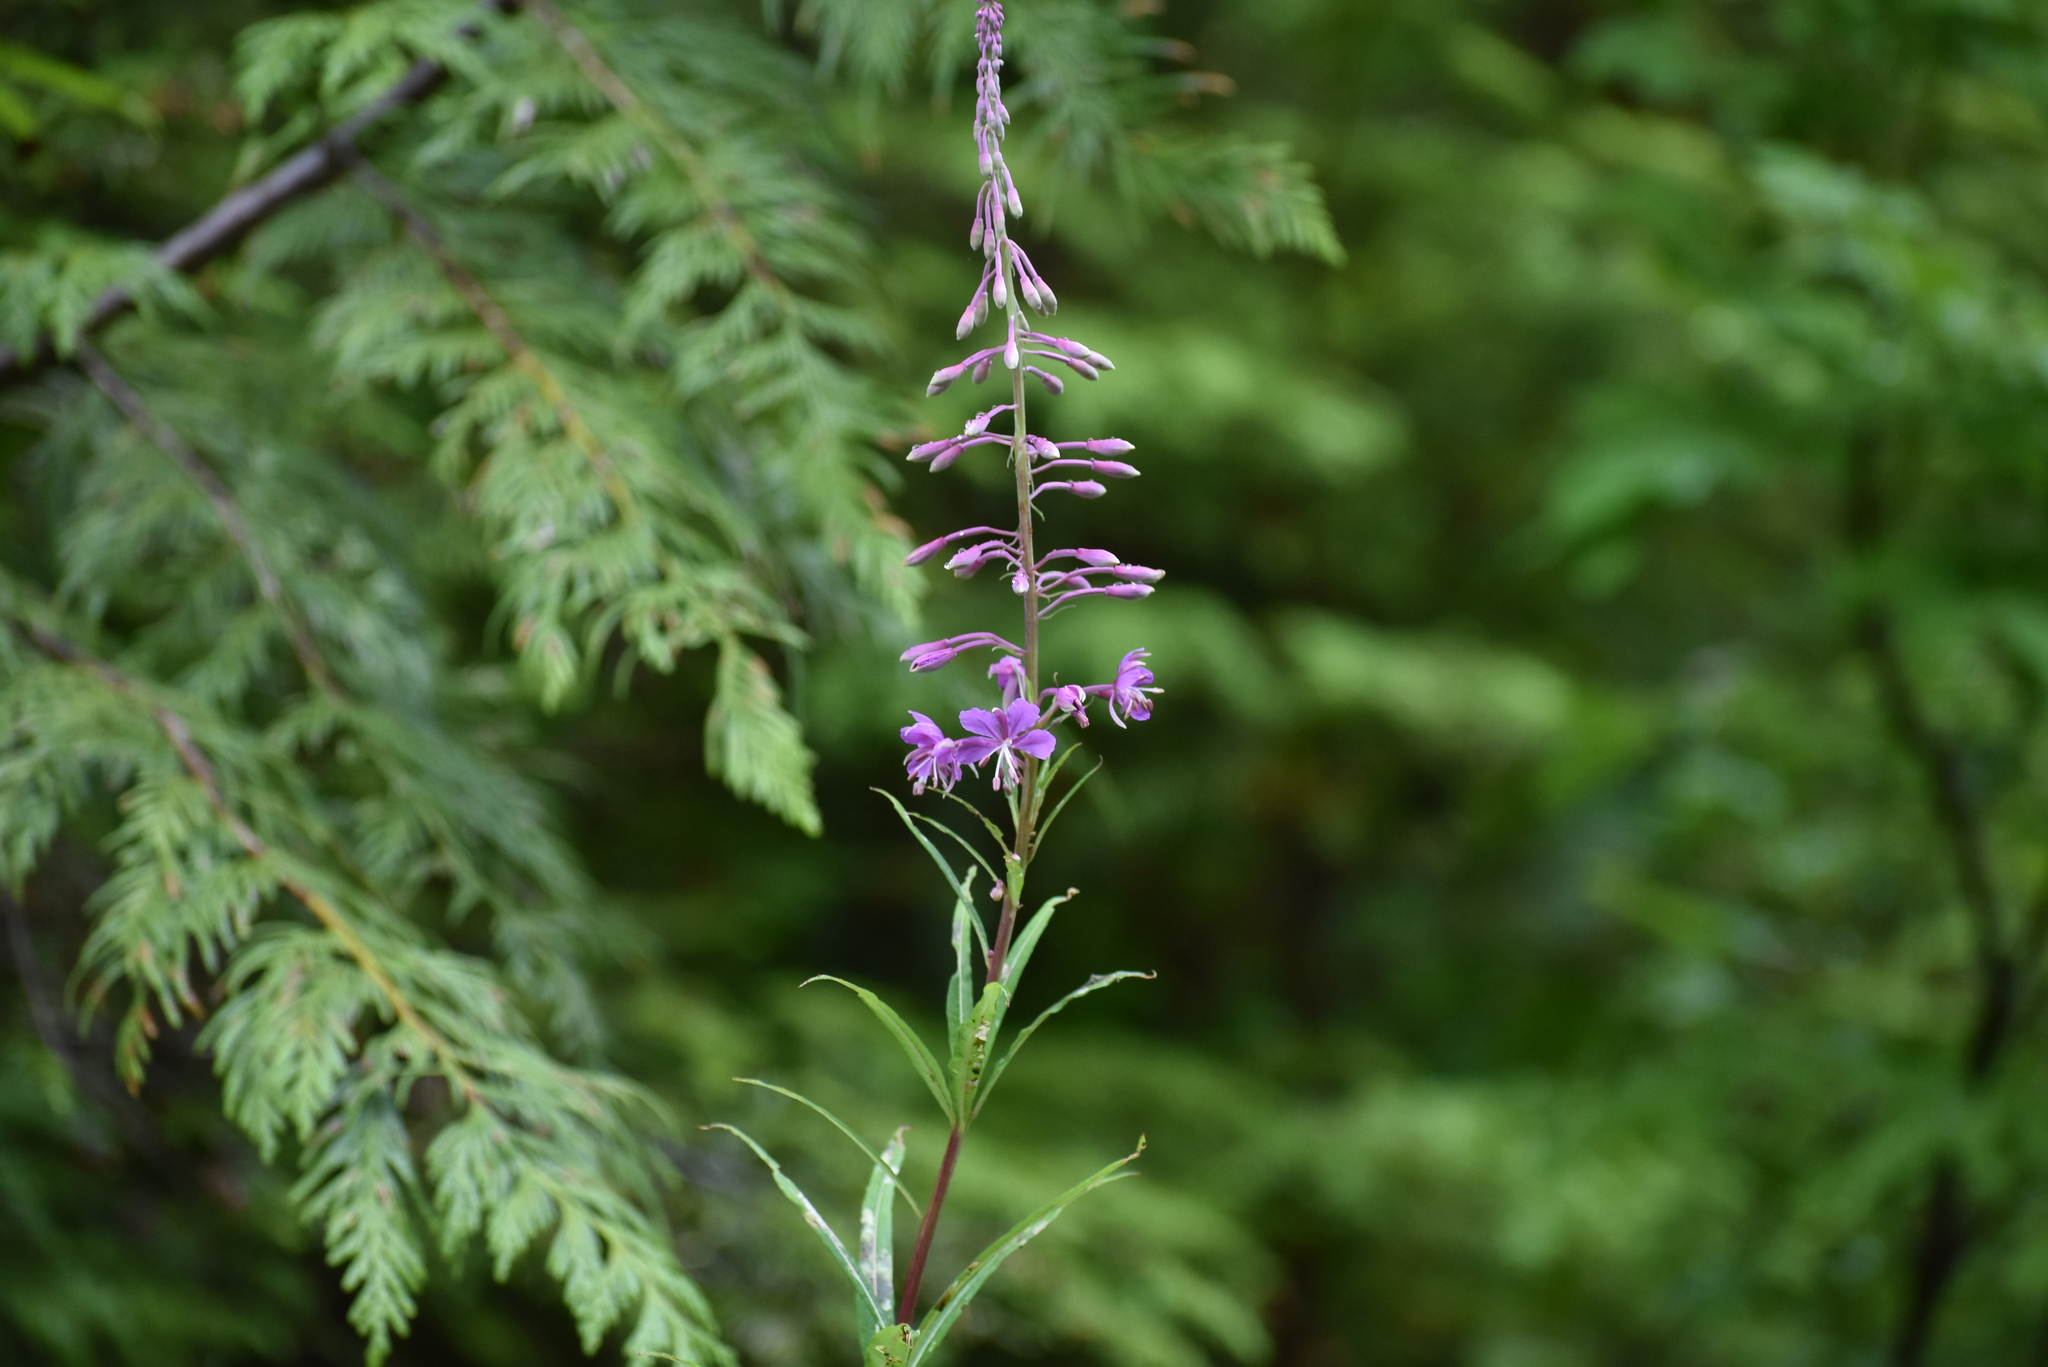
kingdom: Plantae
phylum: Tracheophyta
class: Magnoliopsida
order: Myrtales
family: Onagraceae
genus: Chamaenerion
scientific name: Chamaenerion angustifolium
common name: Fireweed
